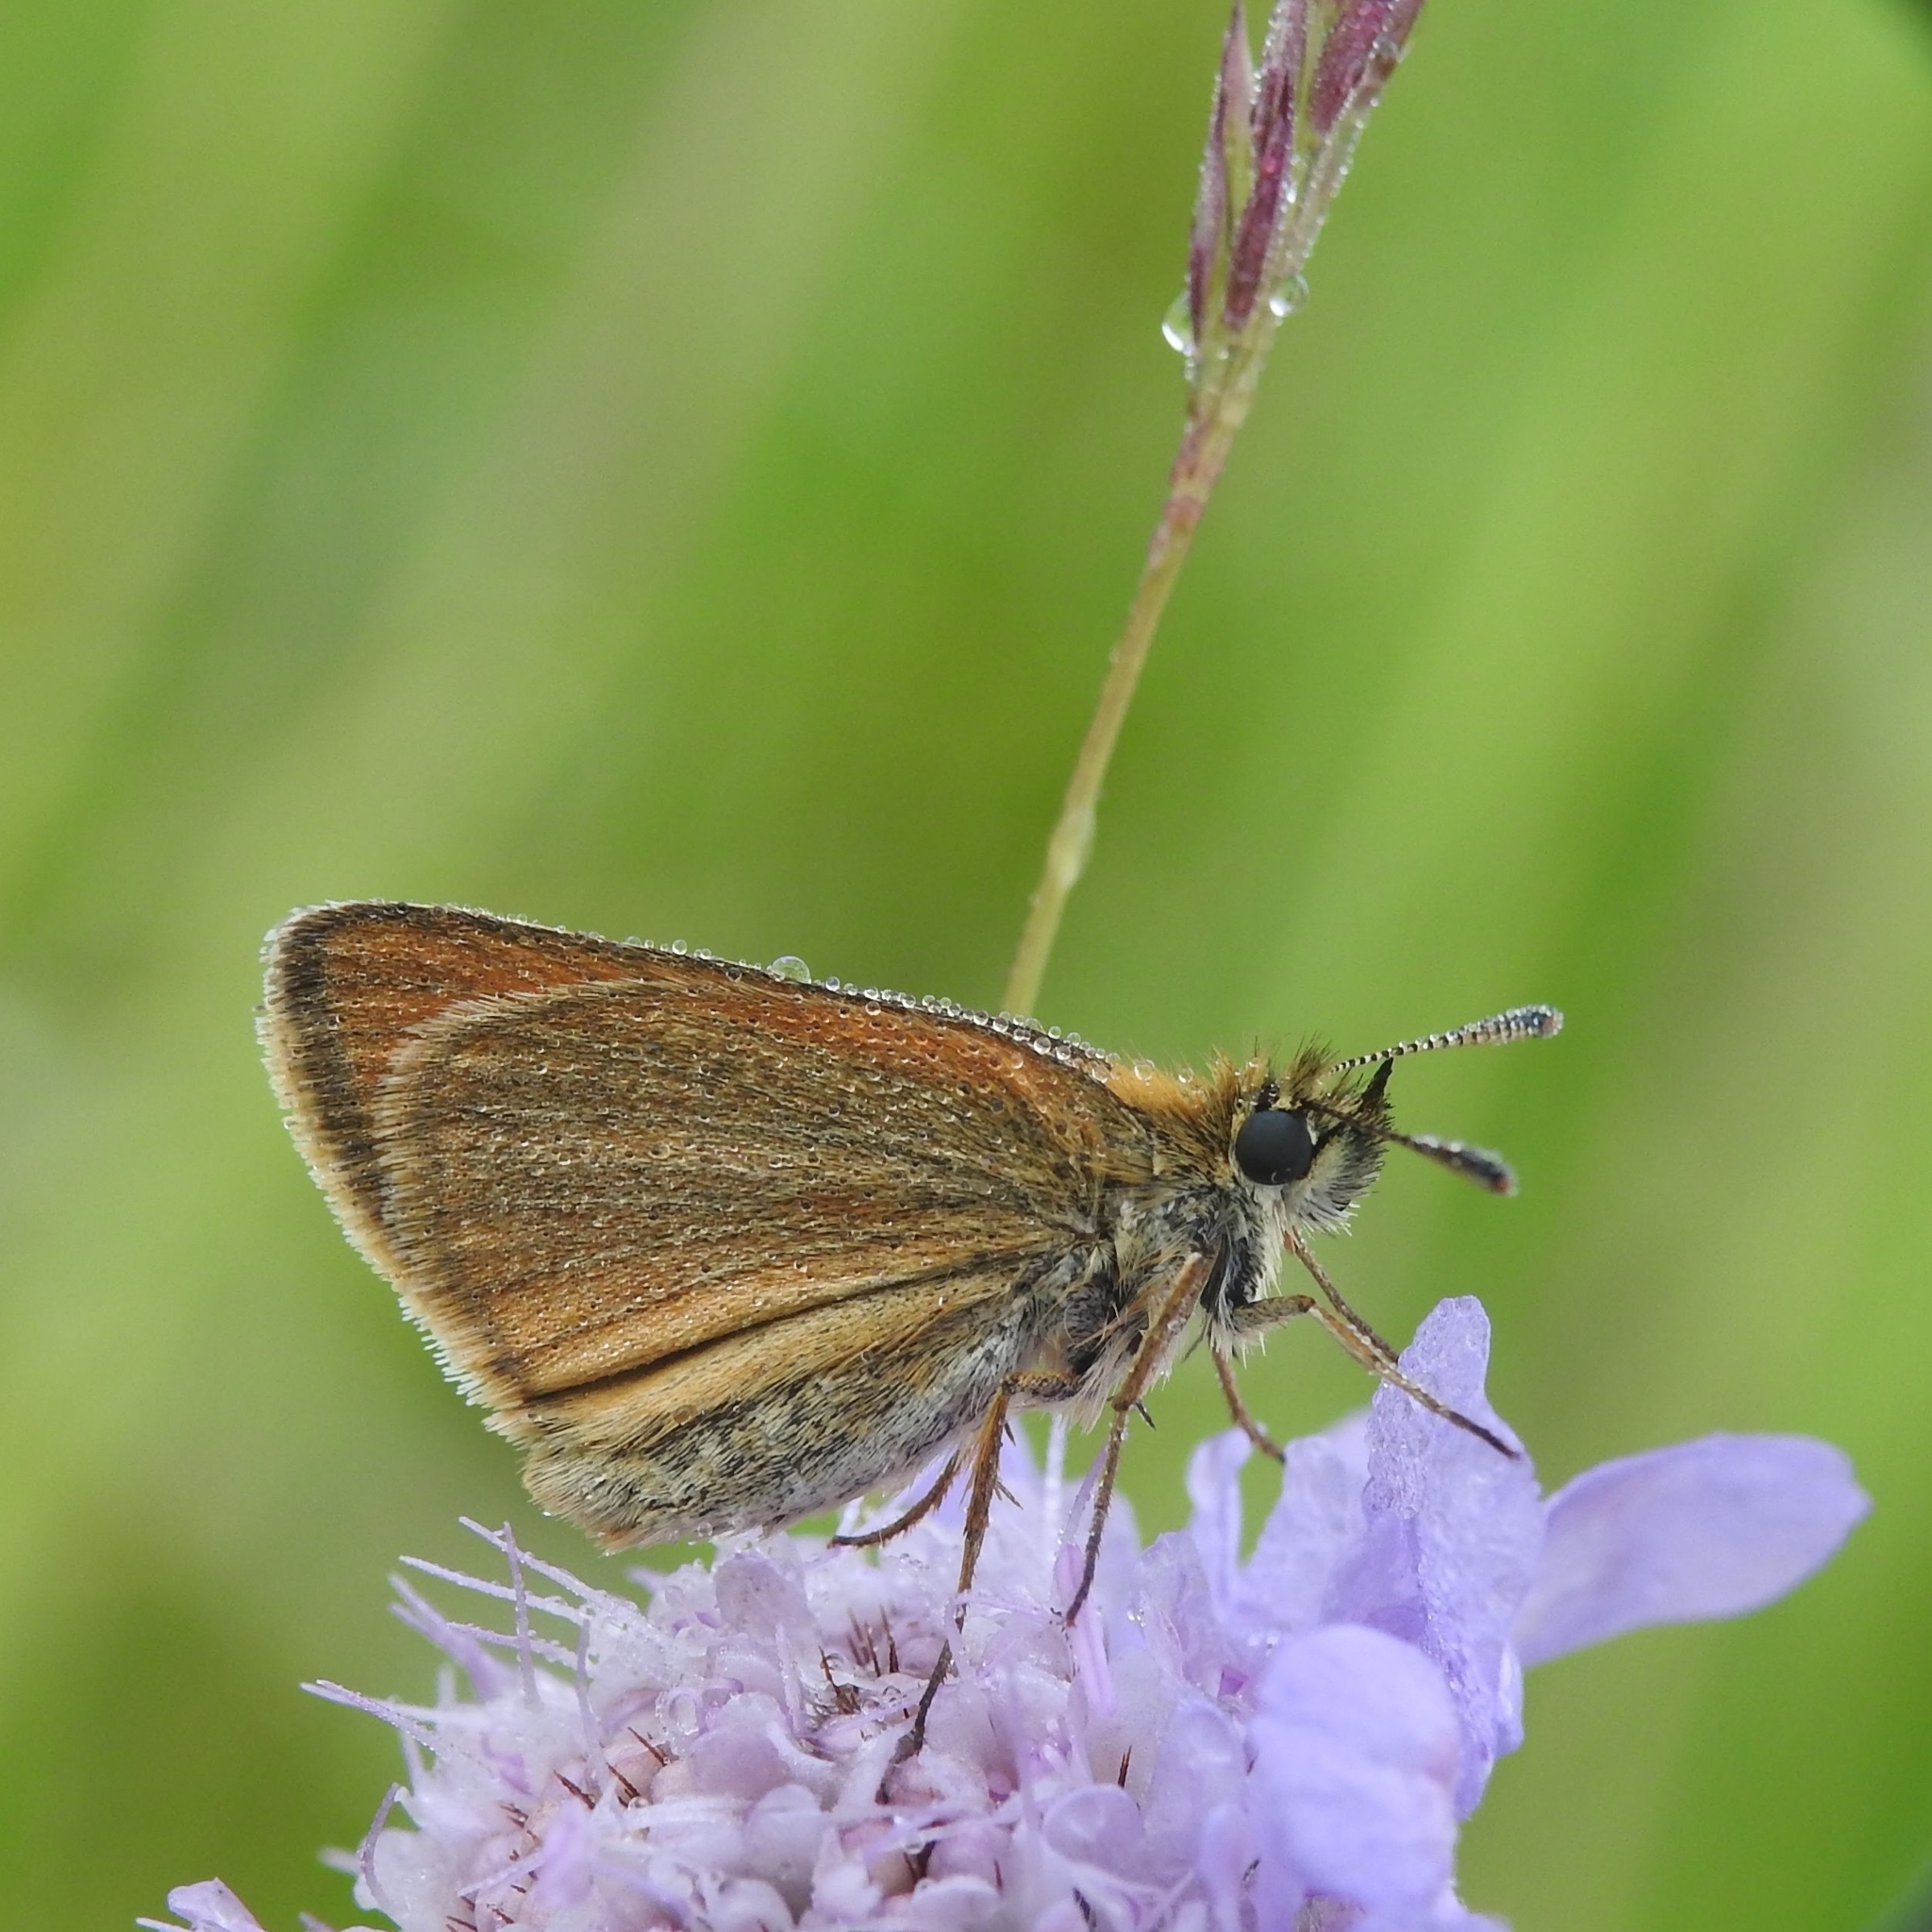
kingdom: Animalia
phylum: Arthropoda
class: Insecta
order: Lepidoptera
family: Hesperiidae
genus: Thymelicus
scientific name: Thymelicus sylvestris
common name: Small skipper
